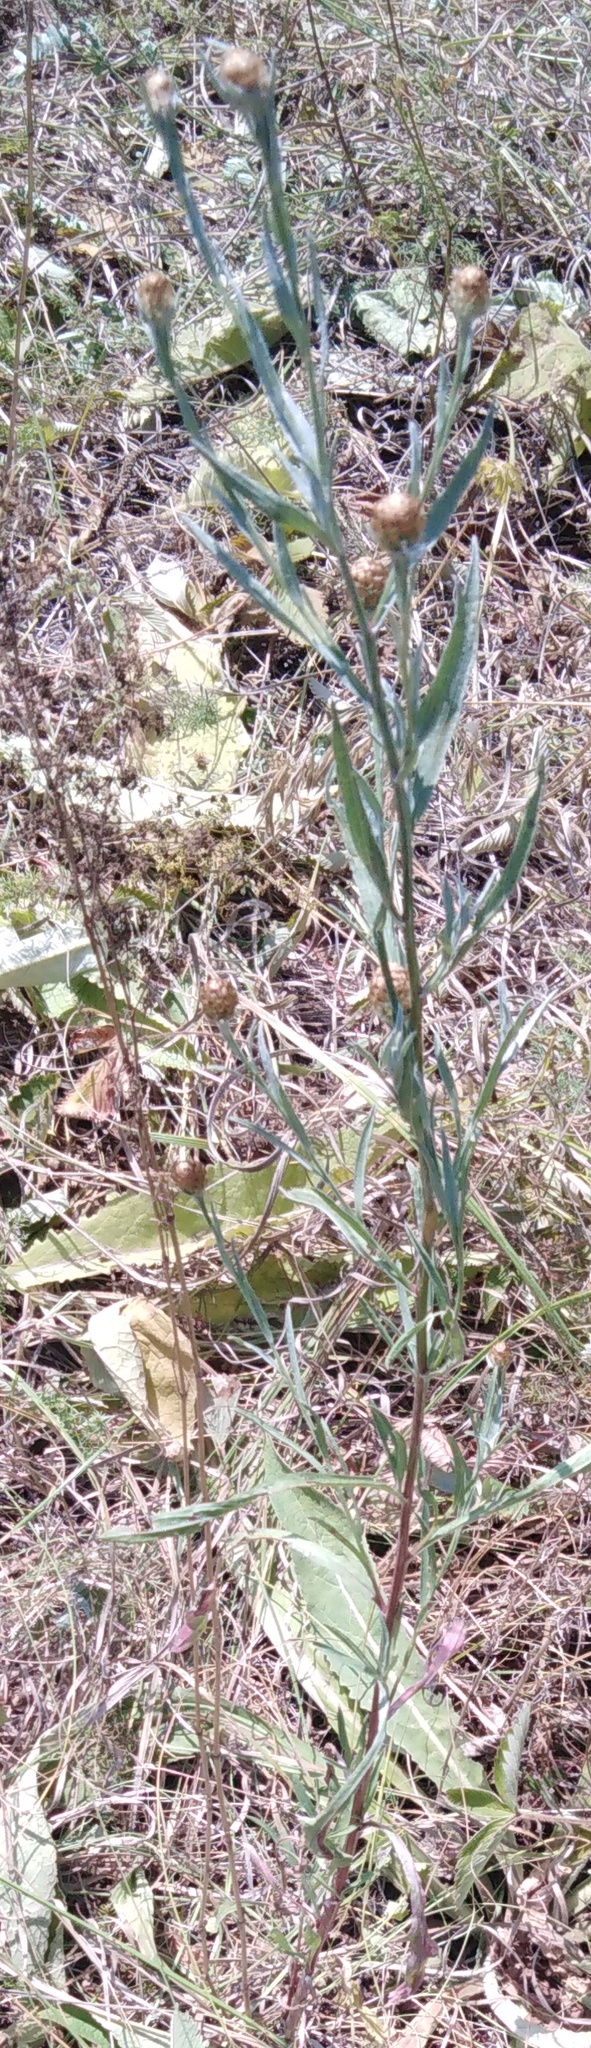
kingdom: Plantae
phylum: Tracheophyta
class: Magnoliopsida
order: Asterales
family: Asteraceae
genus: Centaurea
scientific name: Centaurea jacea
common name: Brown knapweed
